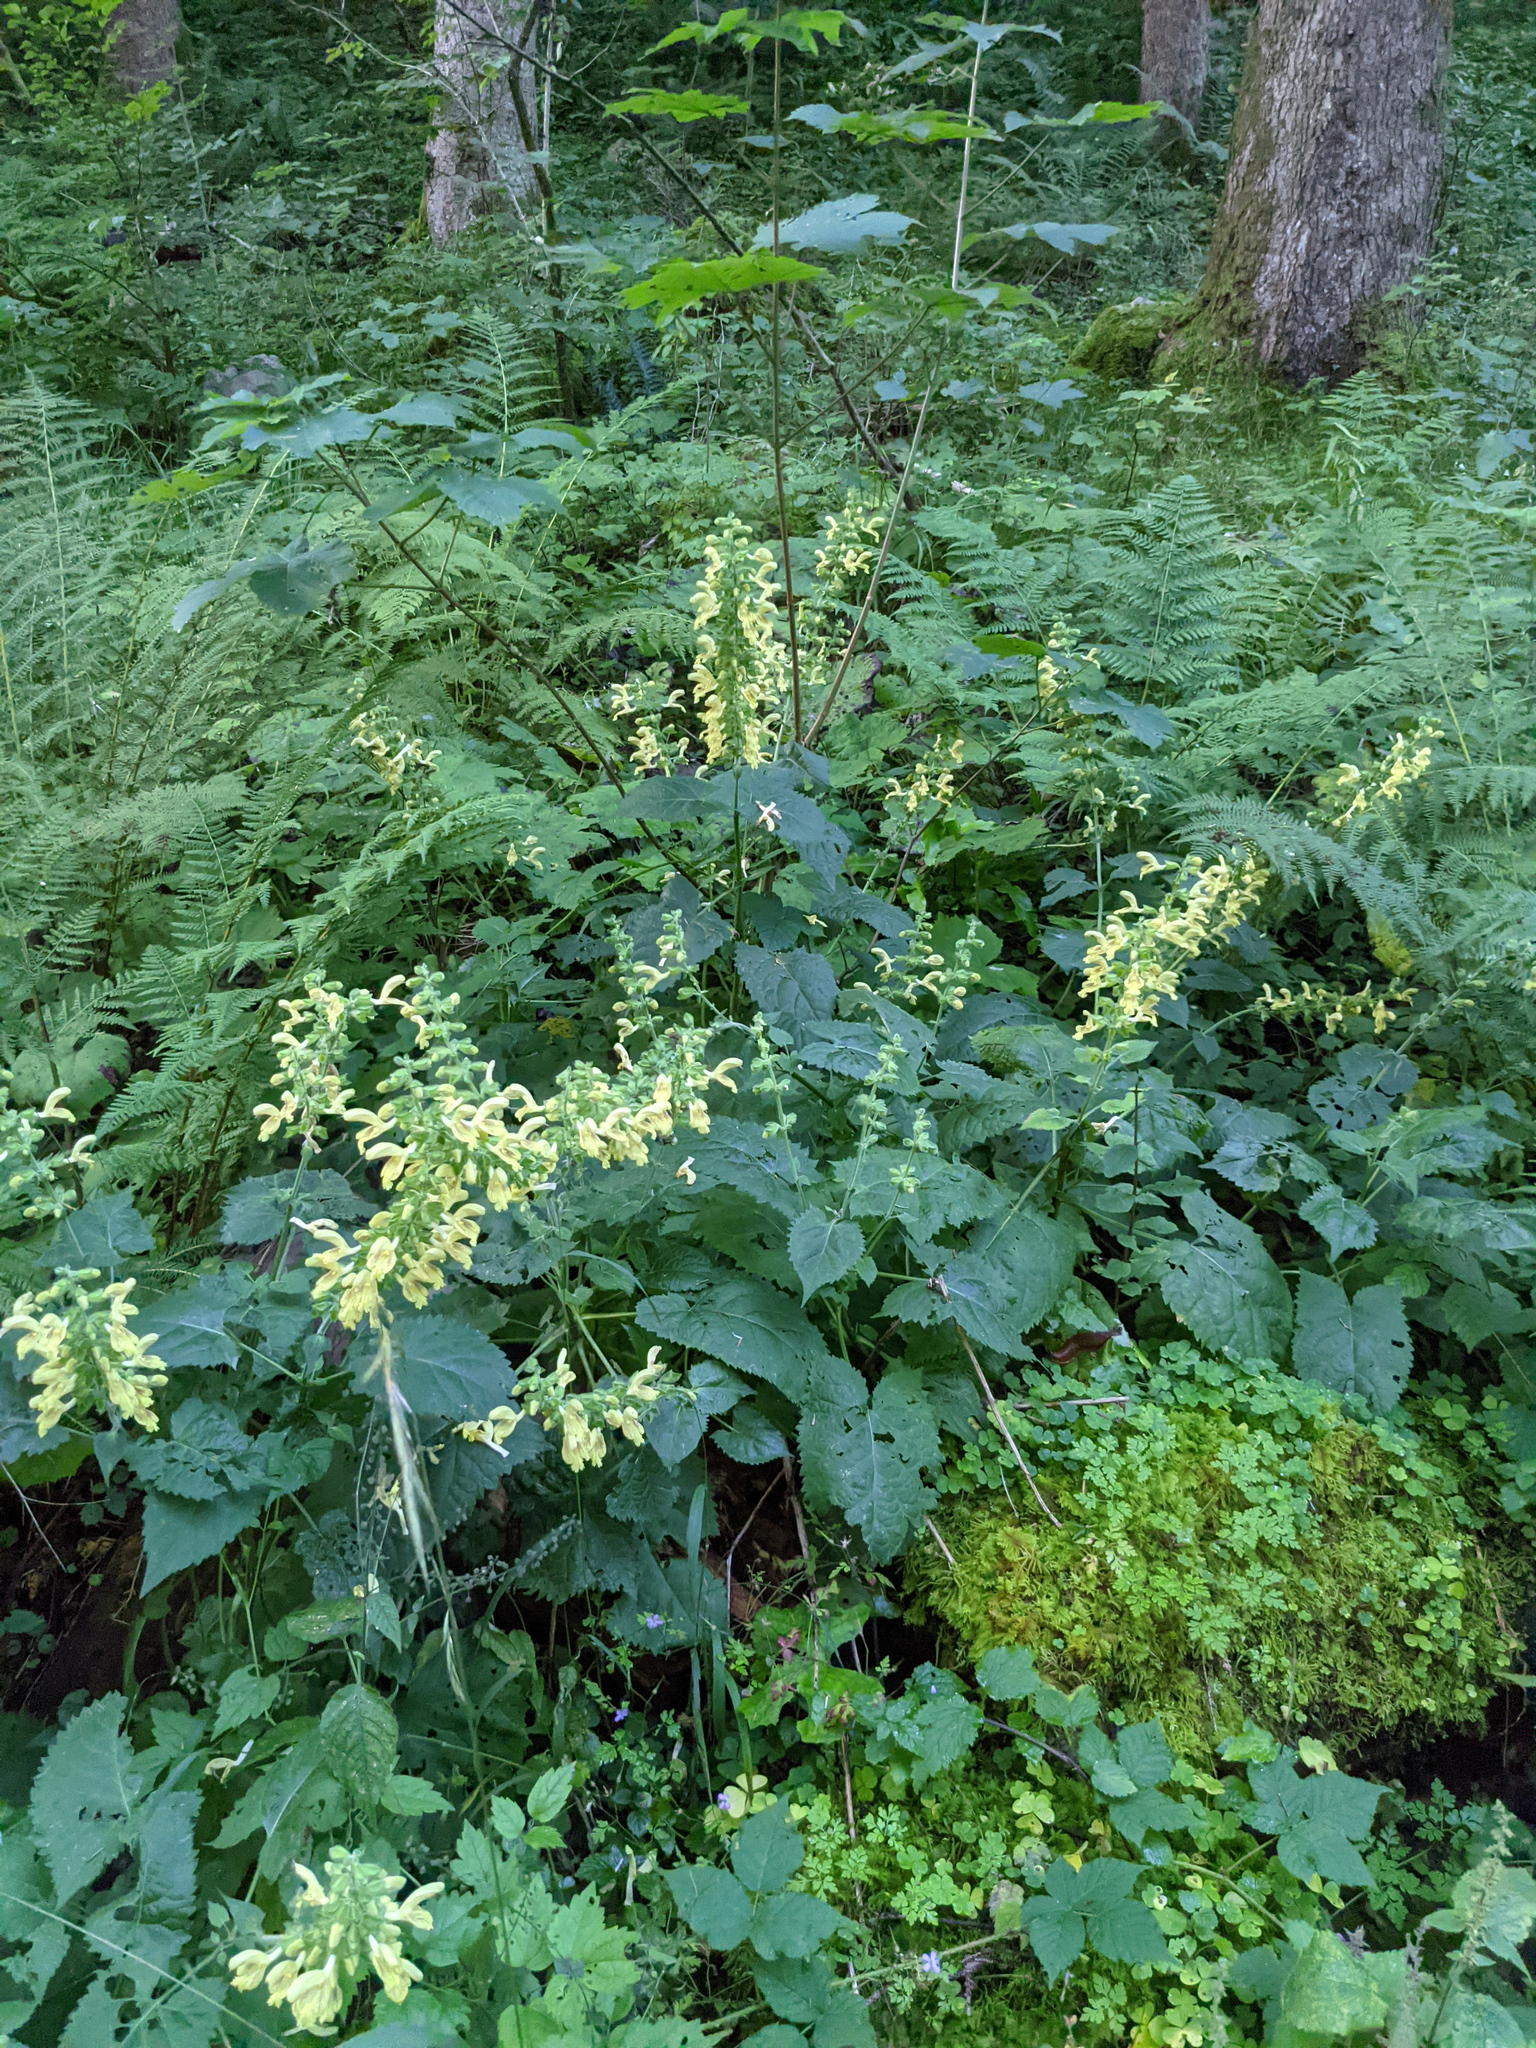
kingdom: Plantae
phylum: Tracheophyta
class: Magnoliopsida
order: Lamiales
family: Lamiaceae
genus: Salvia
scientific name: Salvia glutinosa
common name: Sticky clary
